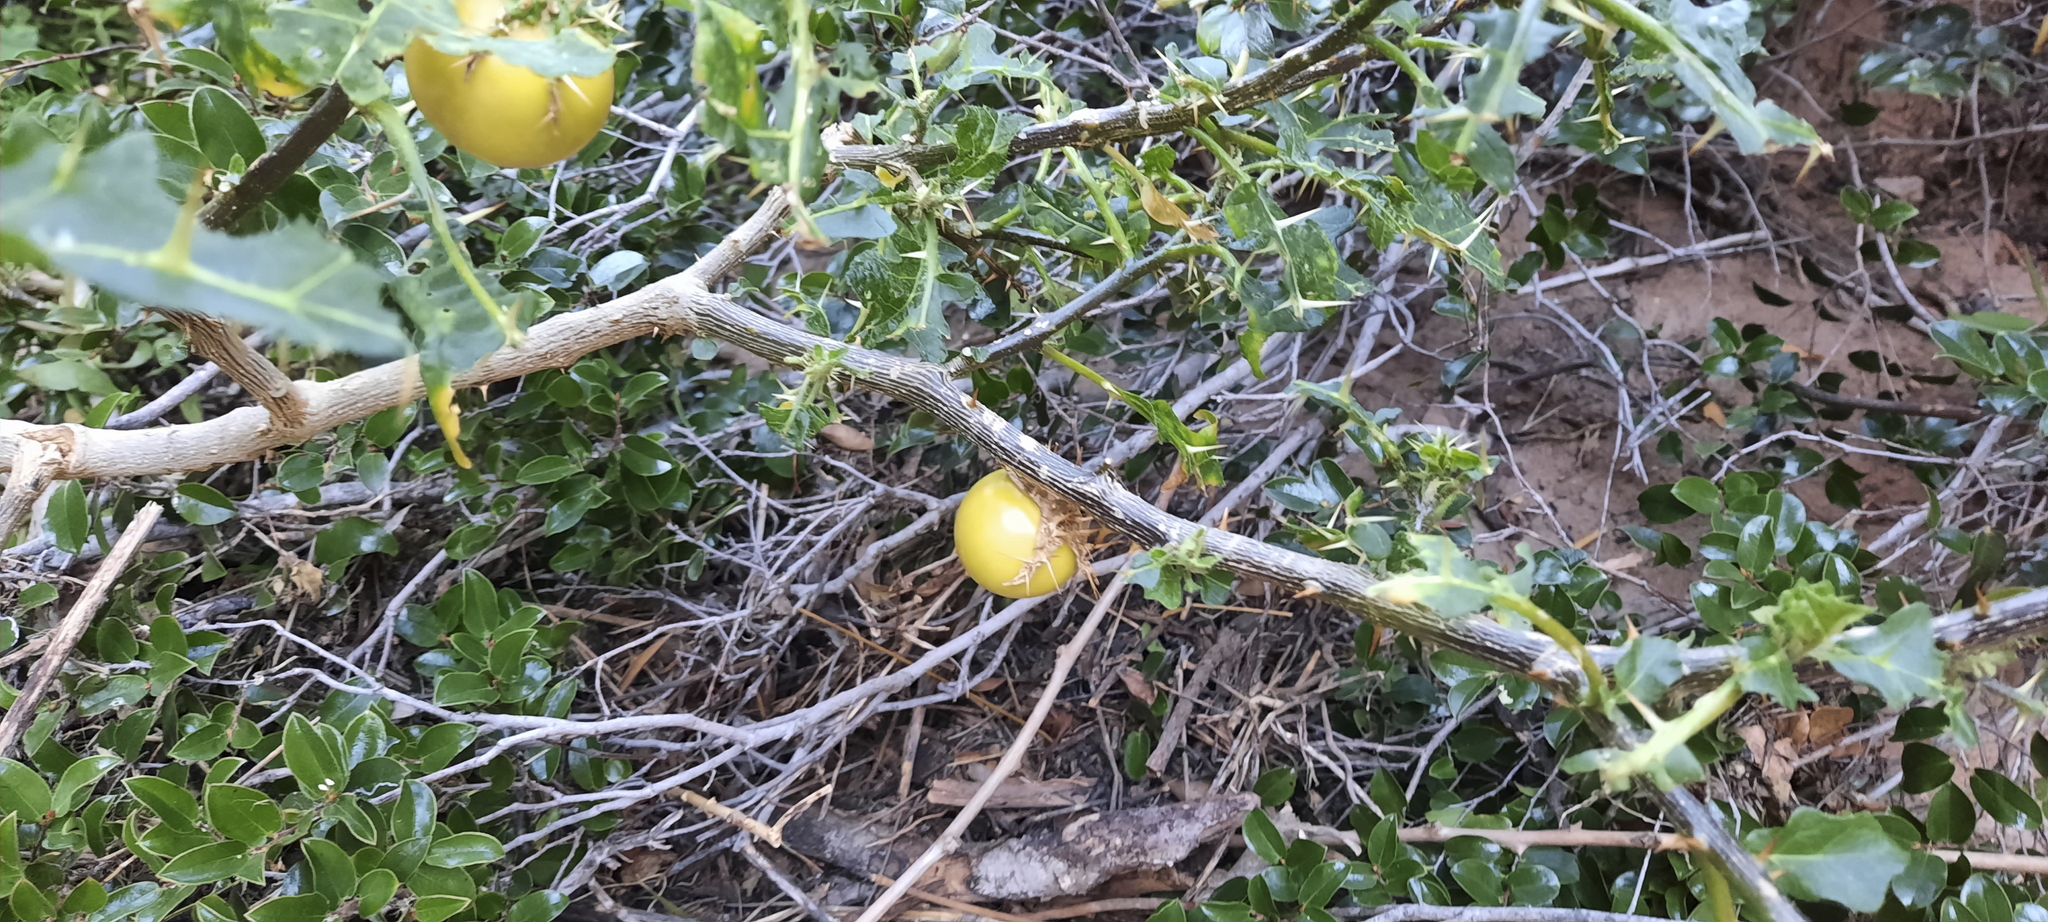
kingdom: Plantae
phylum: Tracheophyta
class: Magnoliopsida
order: Solanales
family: Solanaceae
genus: Solanum
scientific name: Solanum linnaeanum
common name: Nightshade
